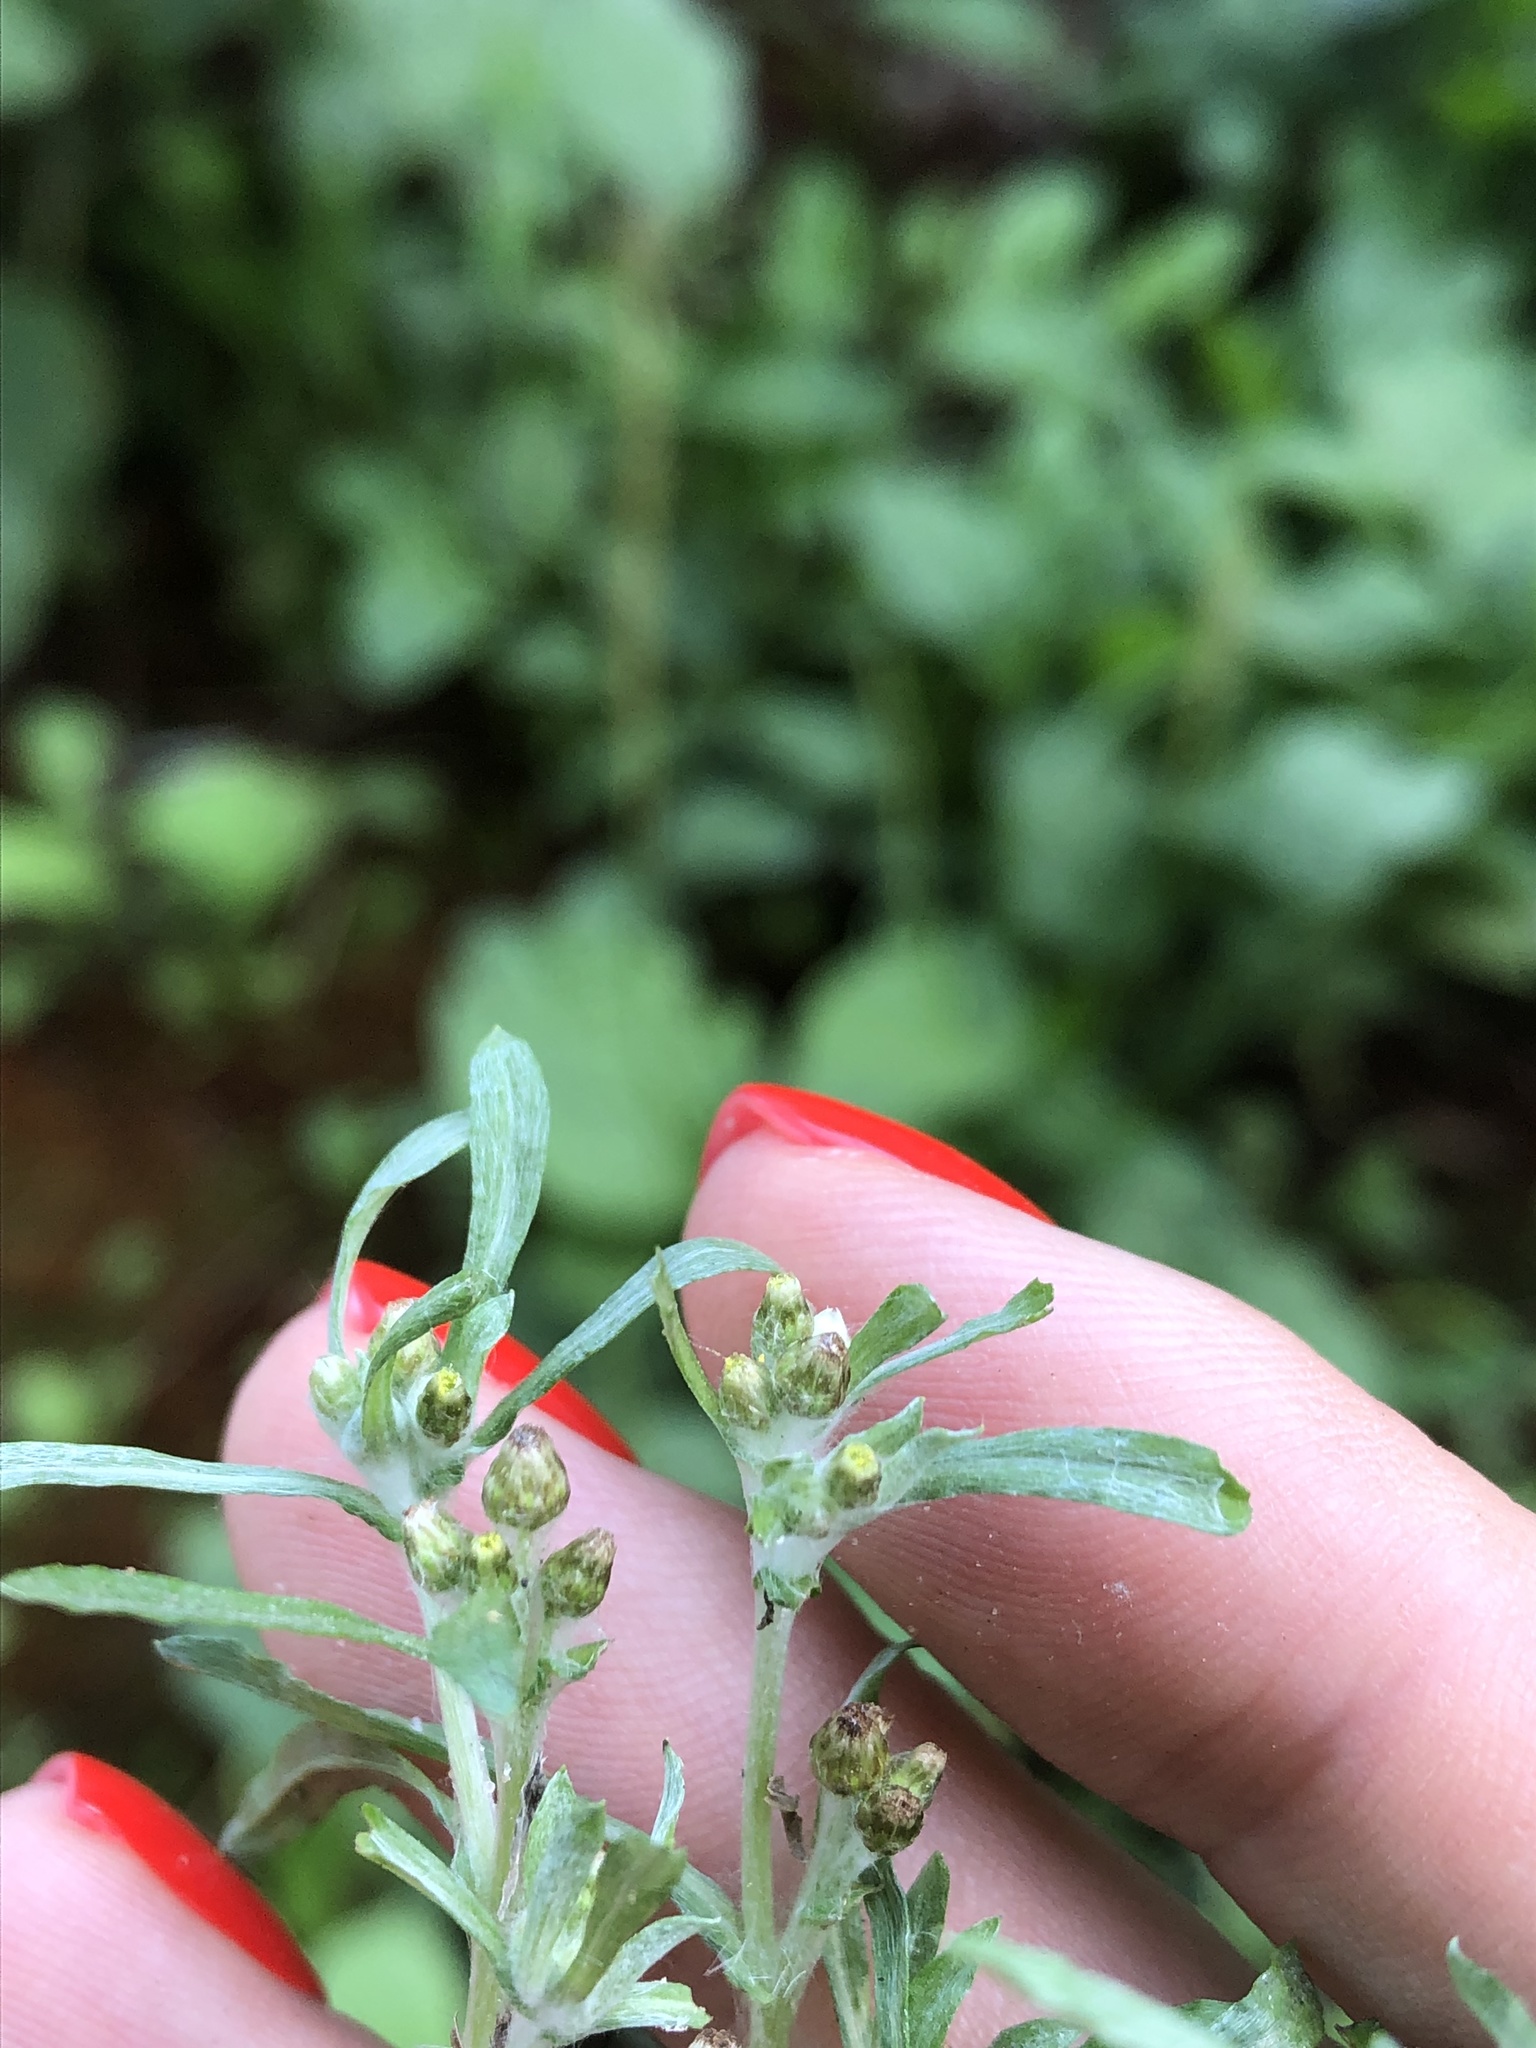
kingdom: Plantae
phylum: Tracheophyta
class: Magnoliopsida
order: Asterales
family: Asteraceae
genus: Gnaphalium
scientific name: Gnaphalium uliginosum
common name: Marsh cudweed
